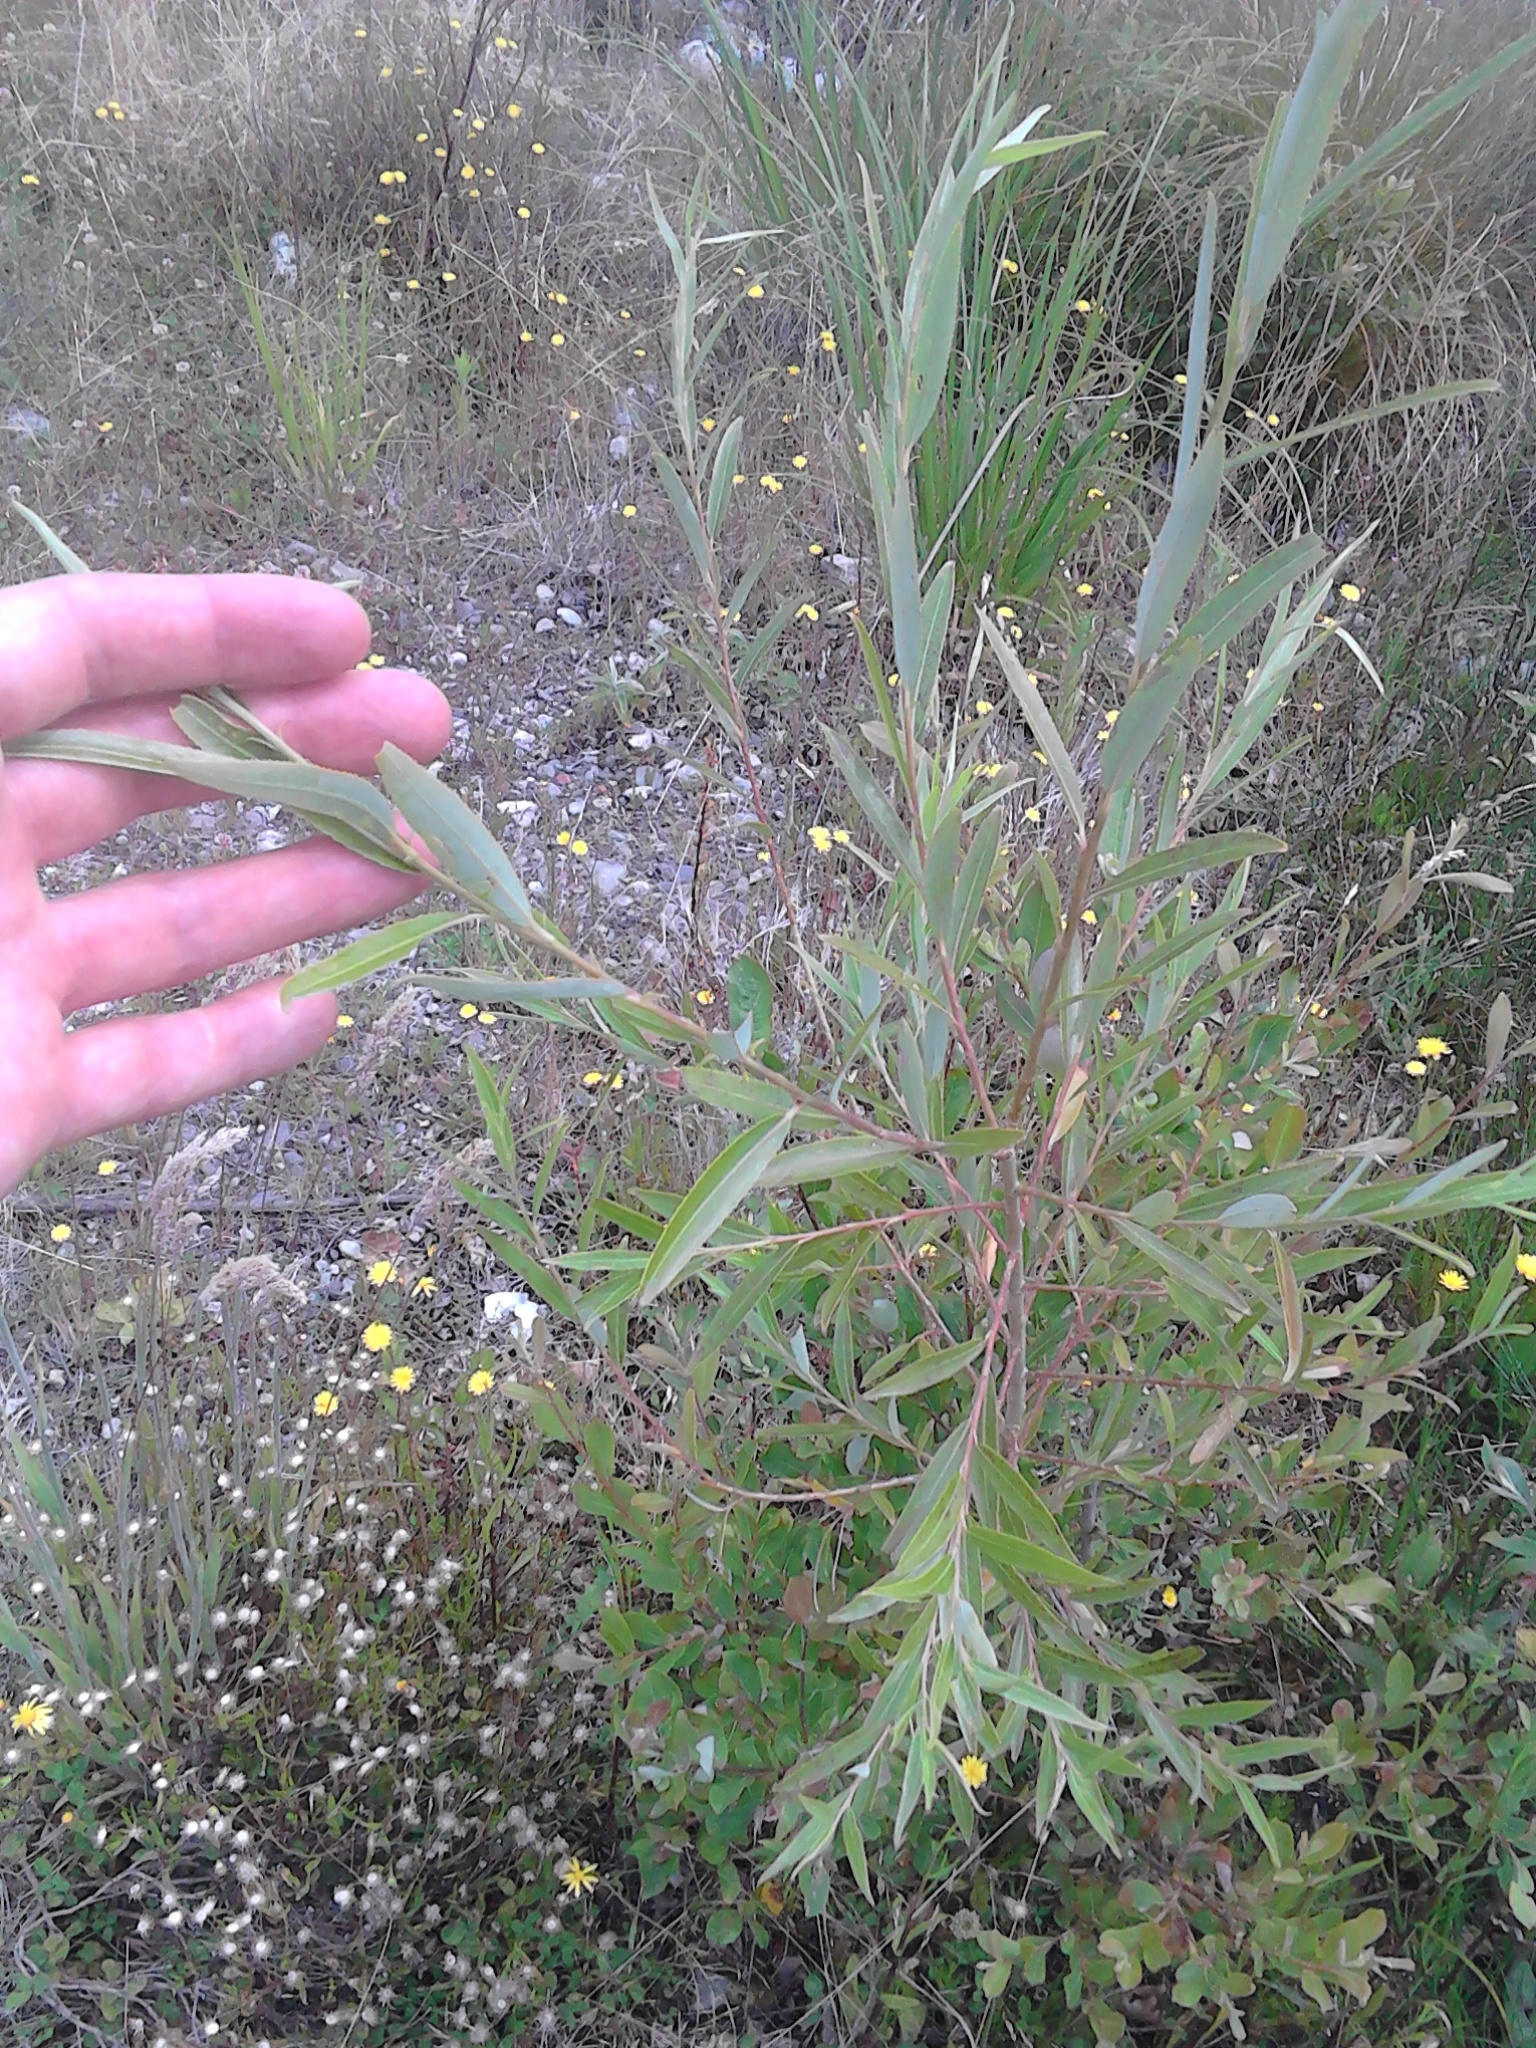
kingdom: Plantae
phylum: Tracheophyta
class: Magnoliopsida
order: Malpighiales
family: Salicaceae
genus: Salix
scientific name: Salix fragilis
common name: Crack willow
